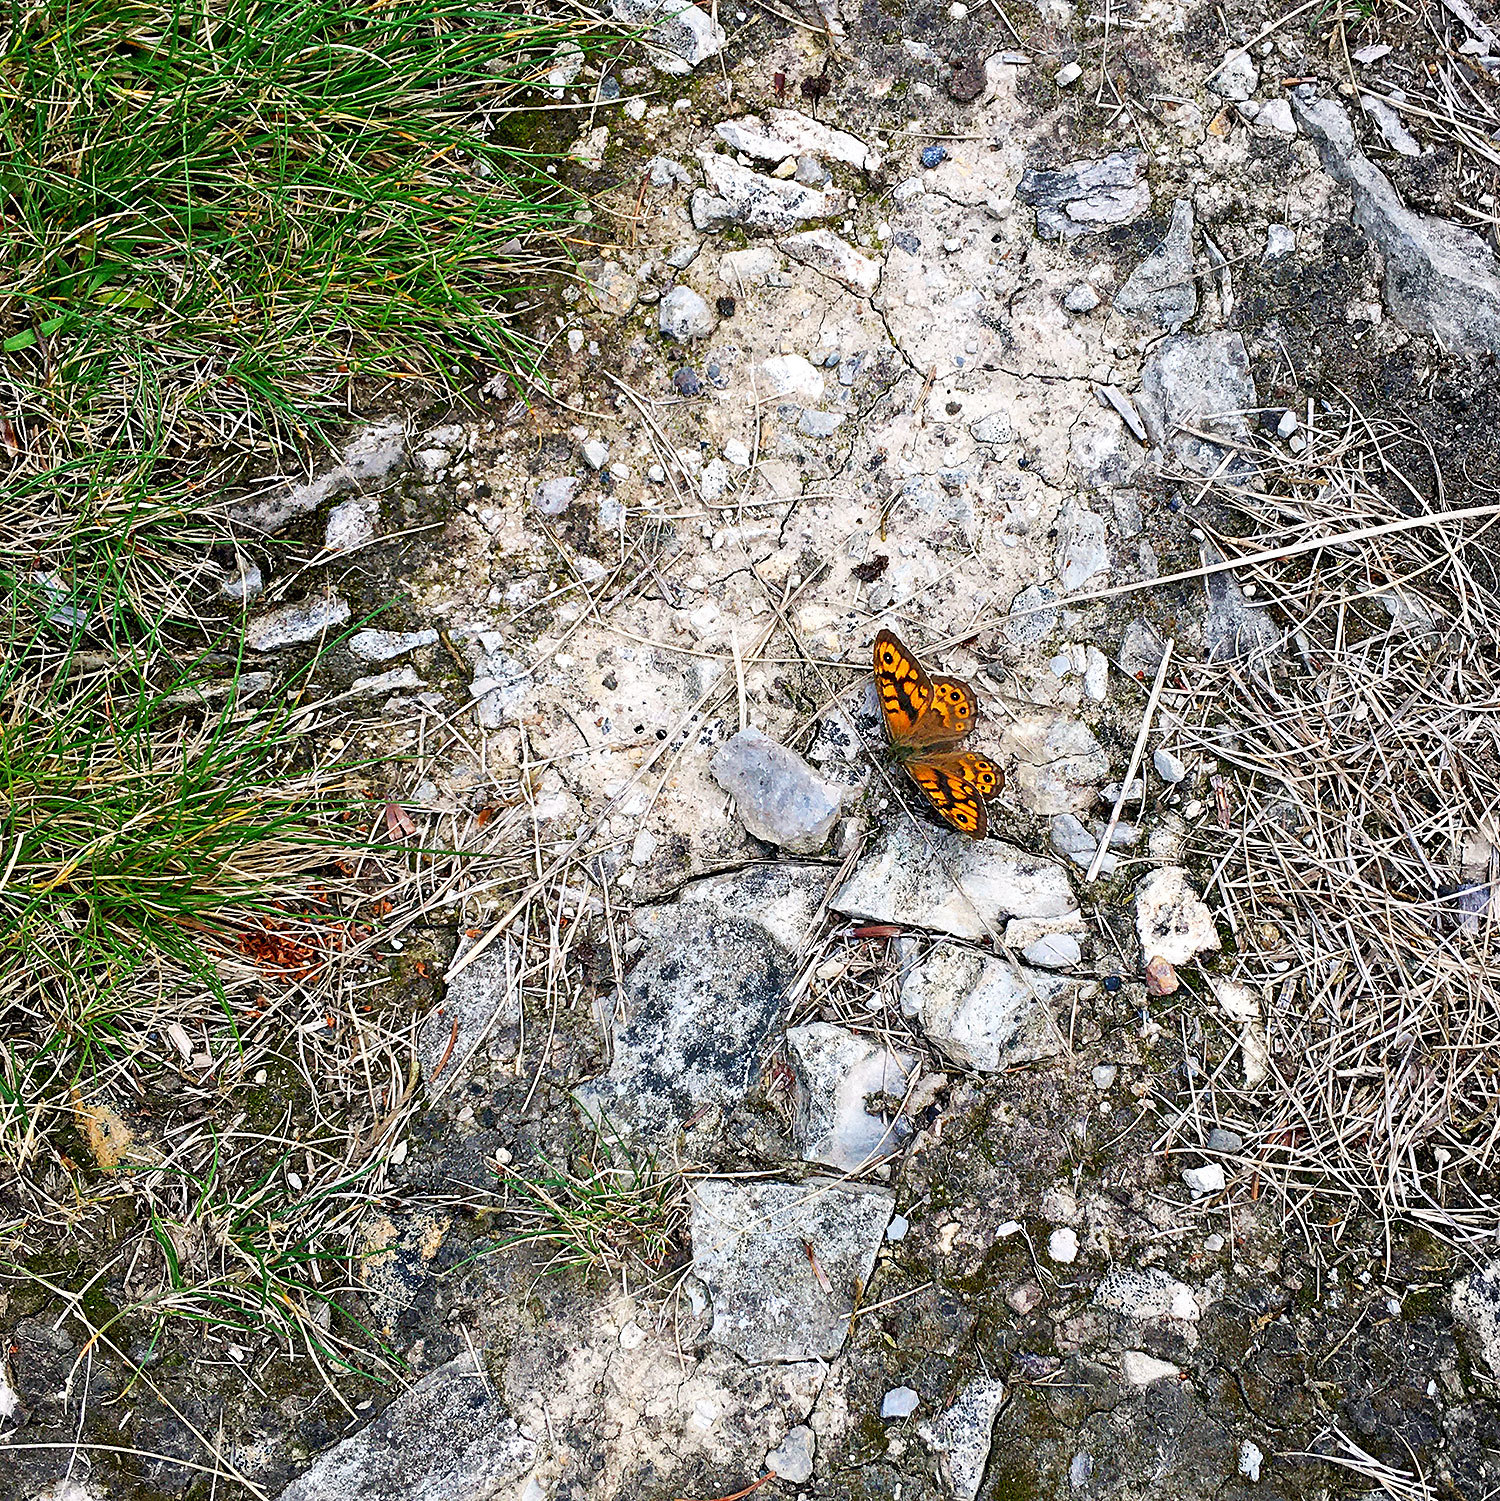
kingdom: Animalia
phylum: Arthropoda
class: Insecta
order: Lepidoptera
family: Nymphalidae
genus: Pararge
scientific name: Pararge Lasiommata megera
